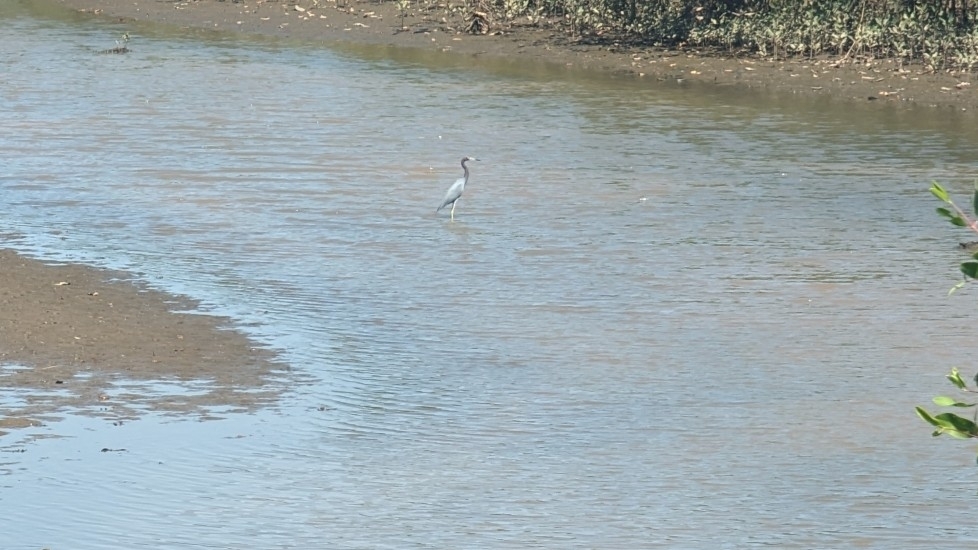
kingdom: Animalia
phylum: Chordata
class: Aves
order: Pelecaniformes
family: Ardeidae
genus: Egretta
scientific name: Egretta caerulea
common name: Little blue heron
